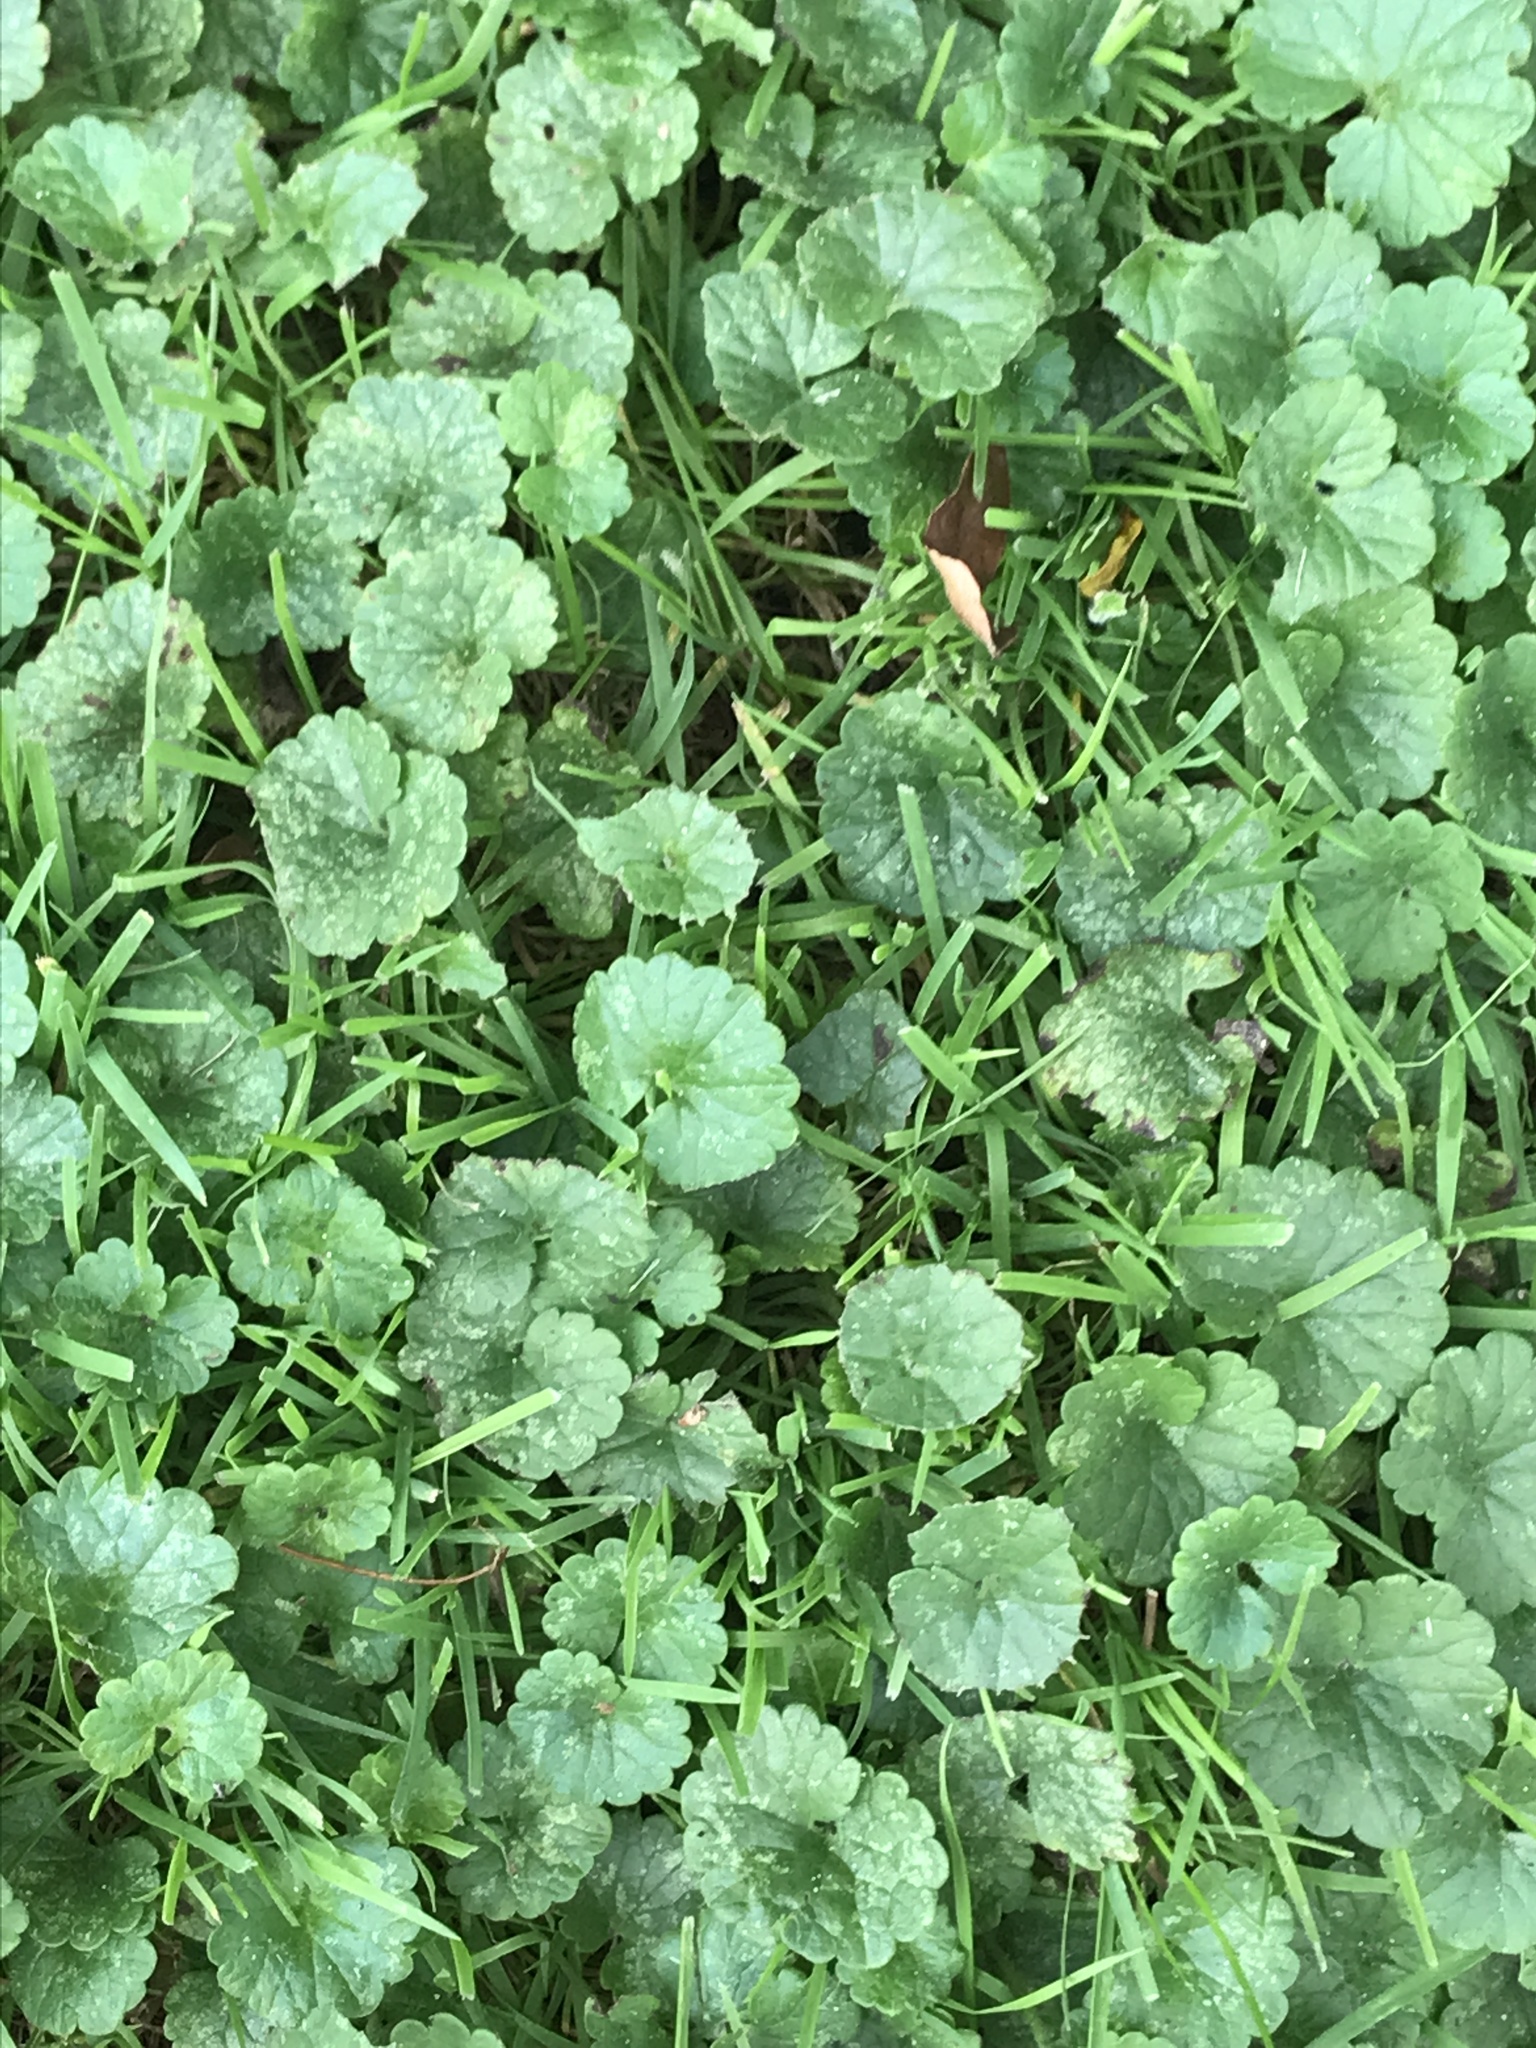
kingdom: Plantae
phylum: Tracheophyta
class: Magnoliopsida
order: Lamiales
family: Lamiaceae
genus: Glechoma
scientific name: Glechoma hederacea
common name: Ground ivy
